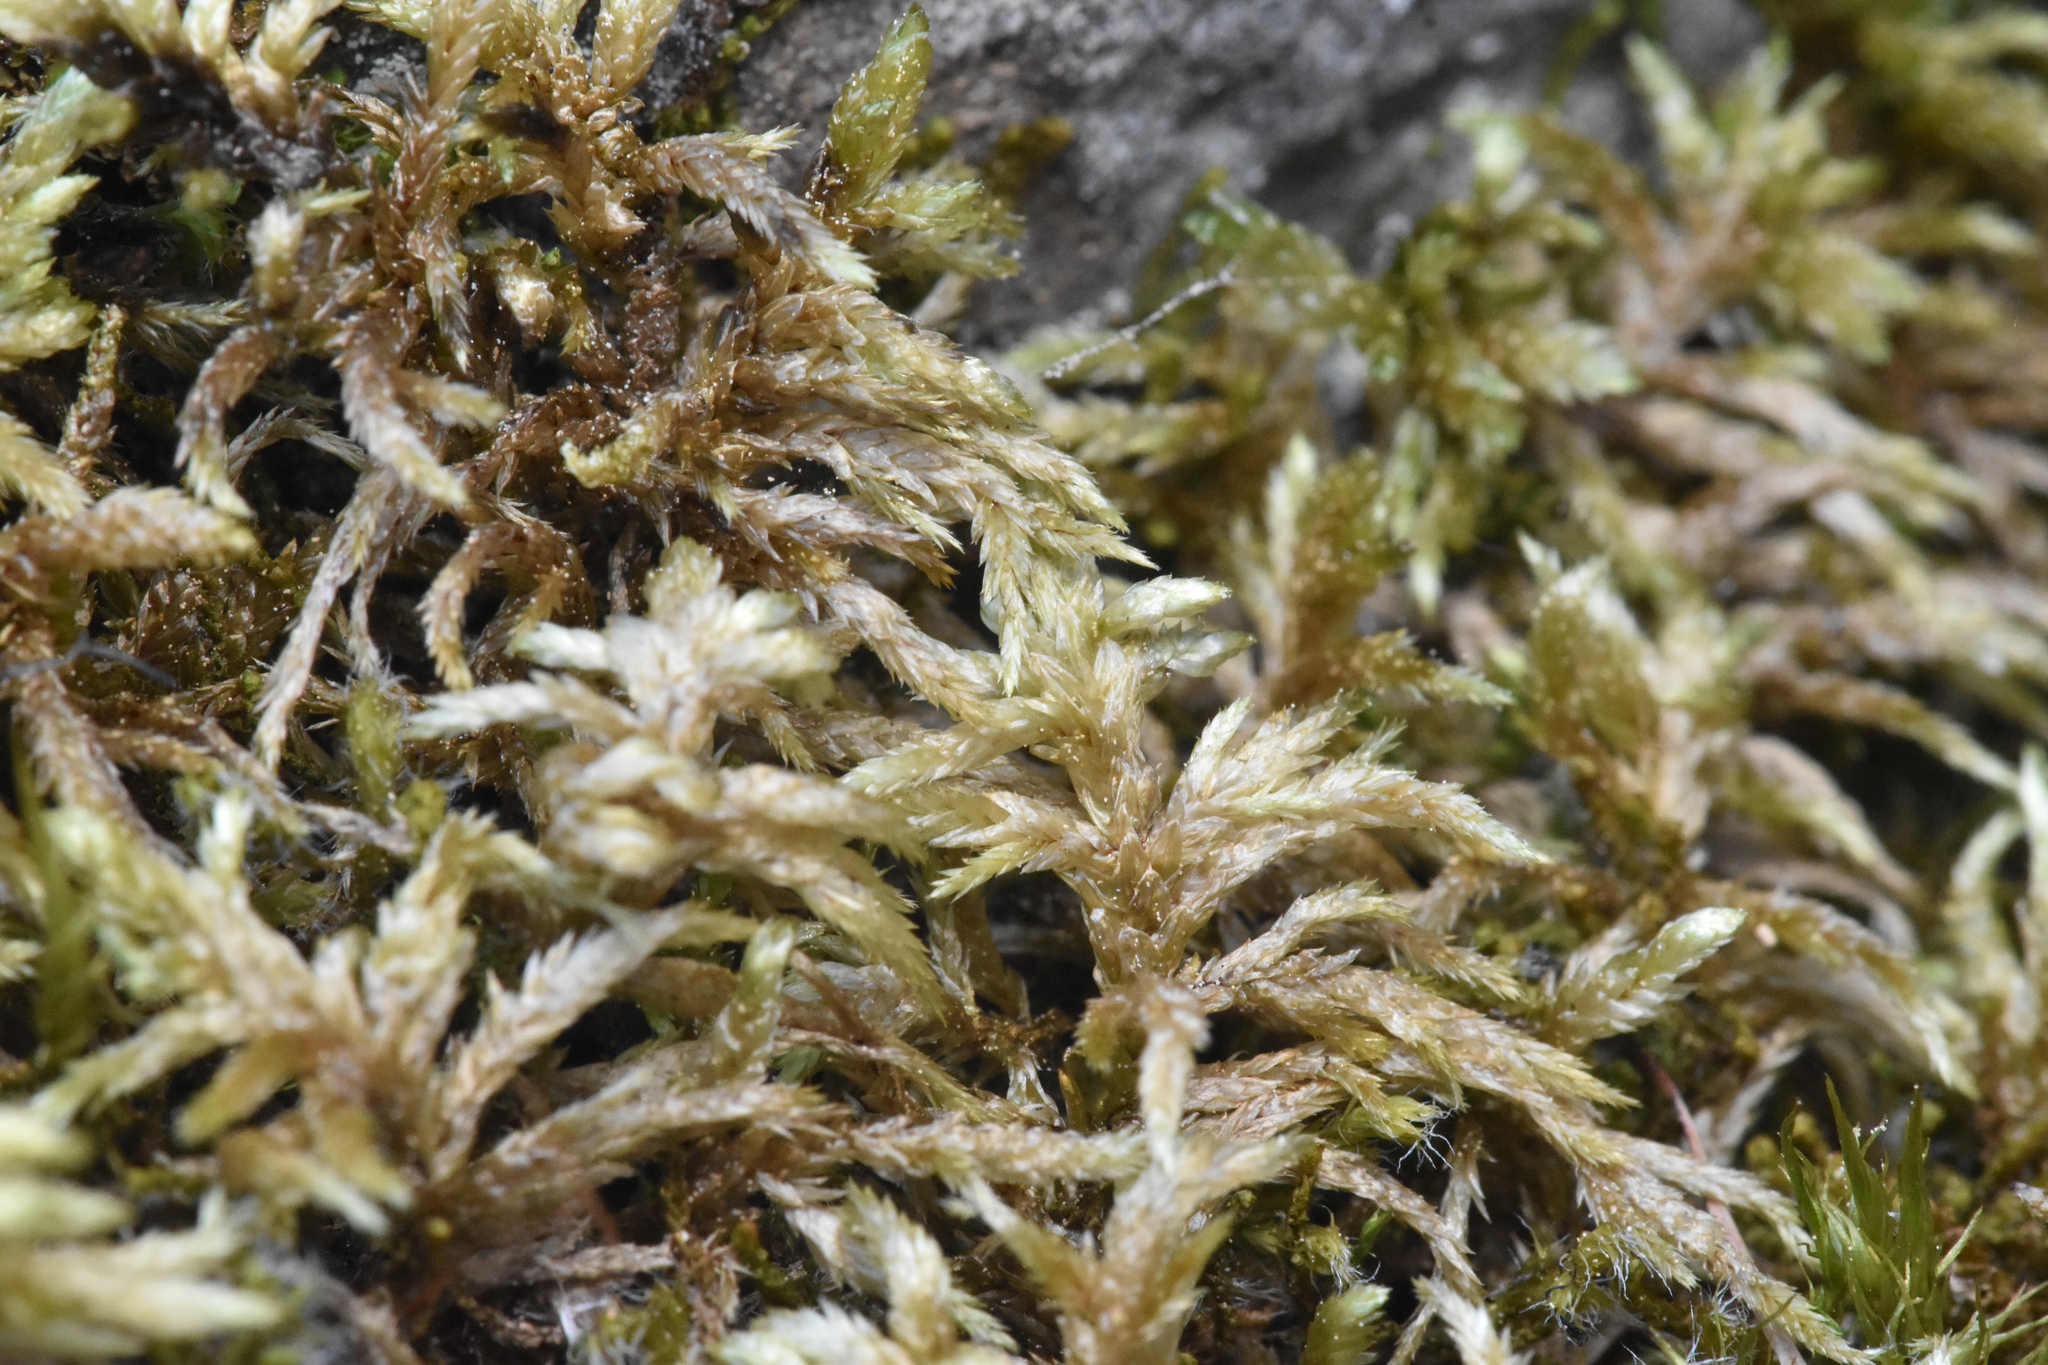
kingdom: Plantae
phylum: Bryophyta
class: Bryopsida
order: Hypnales
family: Hylocomiaceae
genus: Pleurozium
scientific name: Pleurozium schreberi
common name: Red-stemmed feather moss
